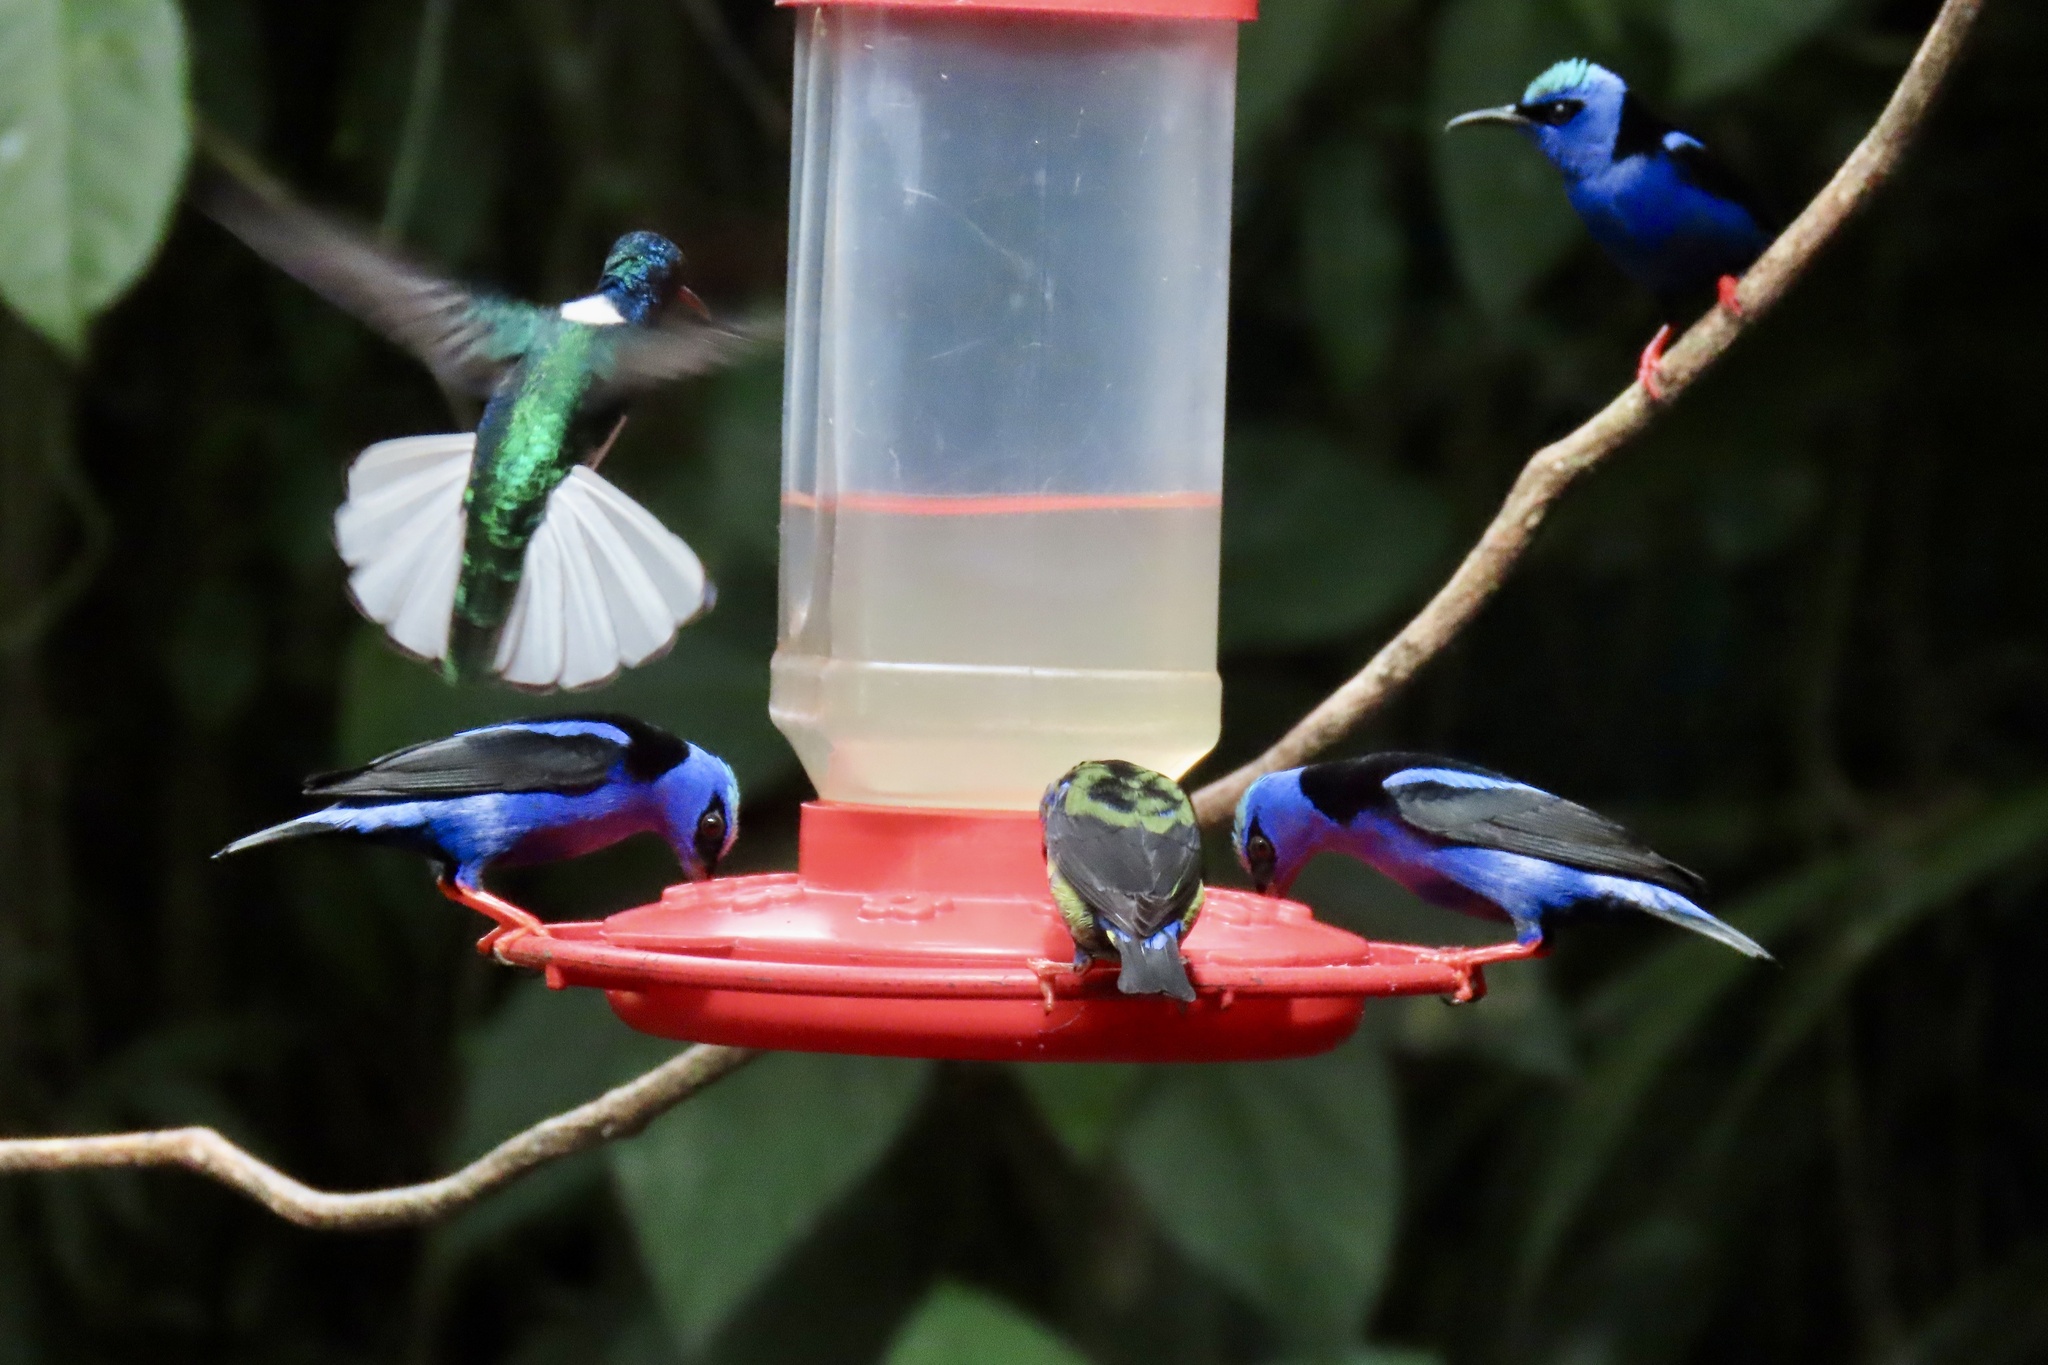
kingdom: Animalia
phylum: Chordata
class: Aves
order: Apodiformes
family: Trochilidae
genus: Florisuga
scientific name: Florisuga mellivora
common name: White-necked jacobin
